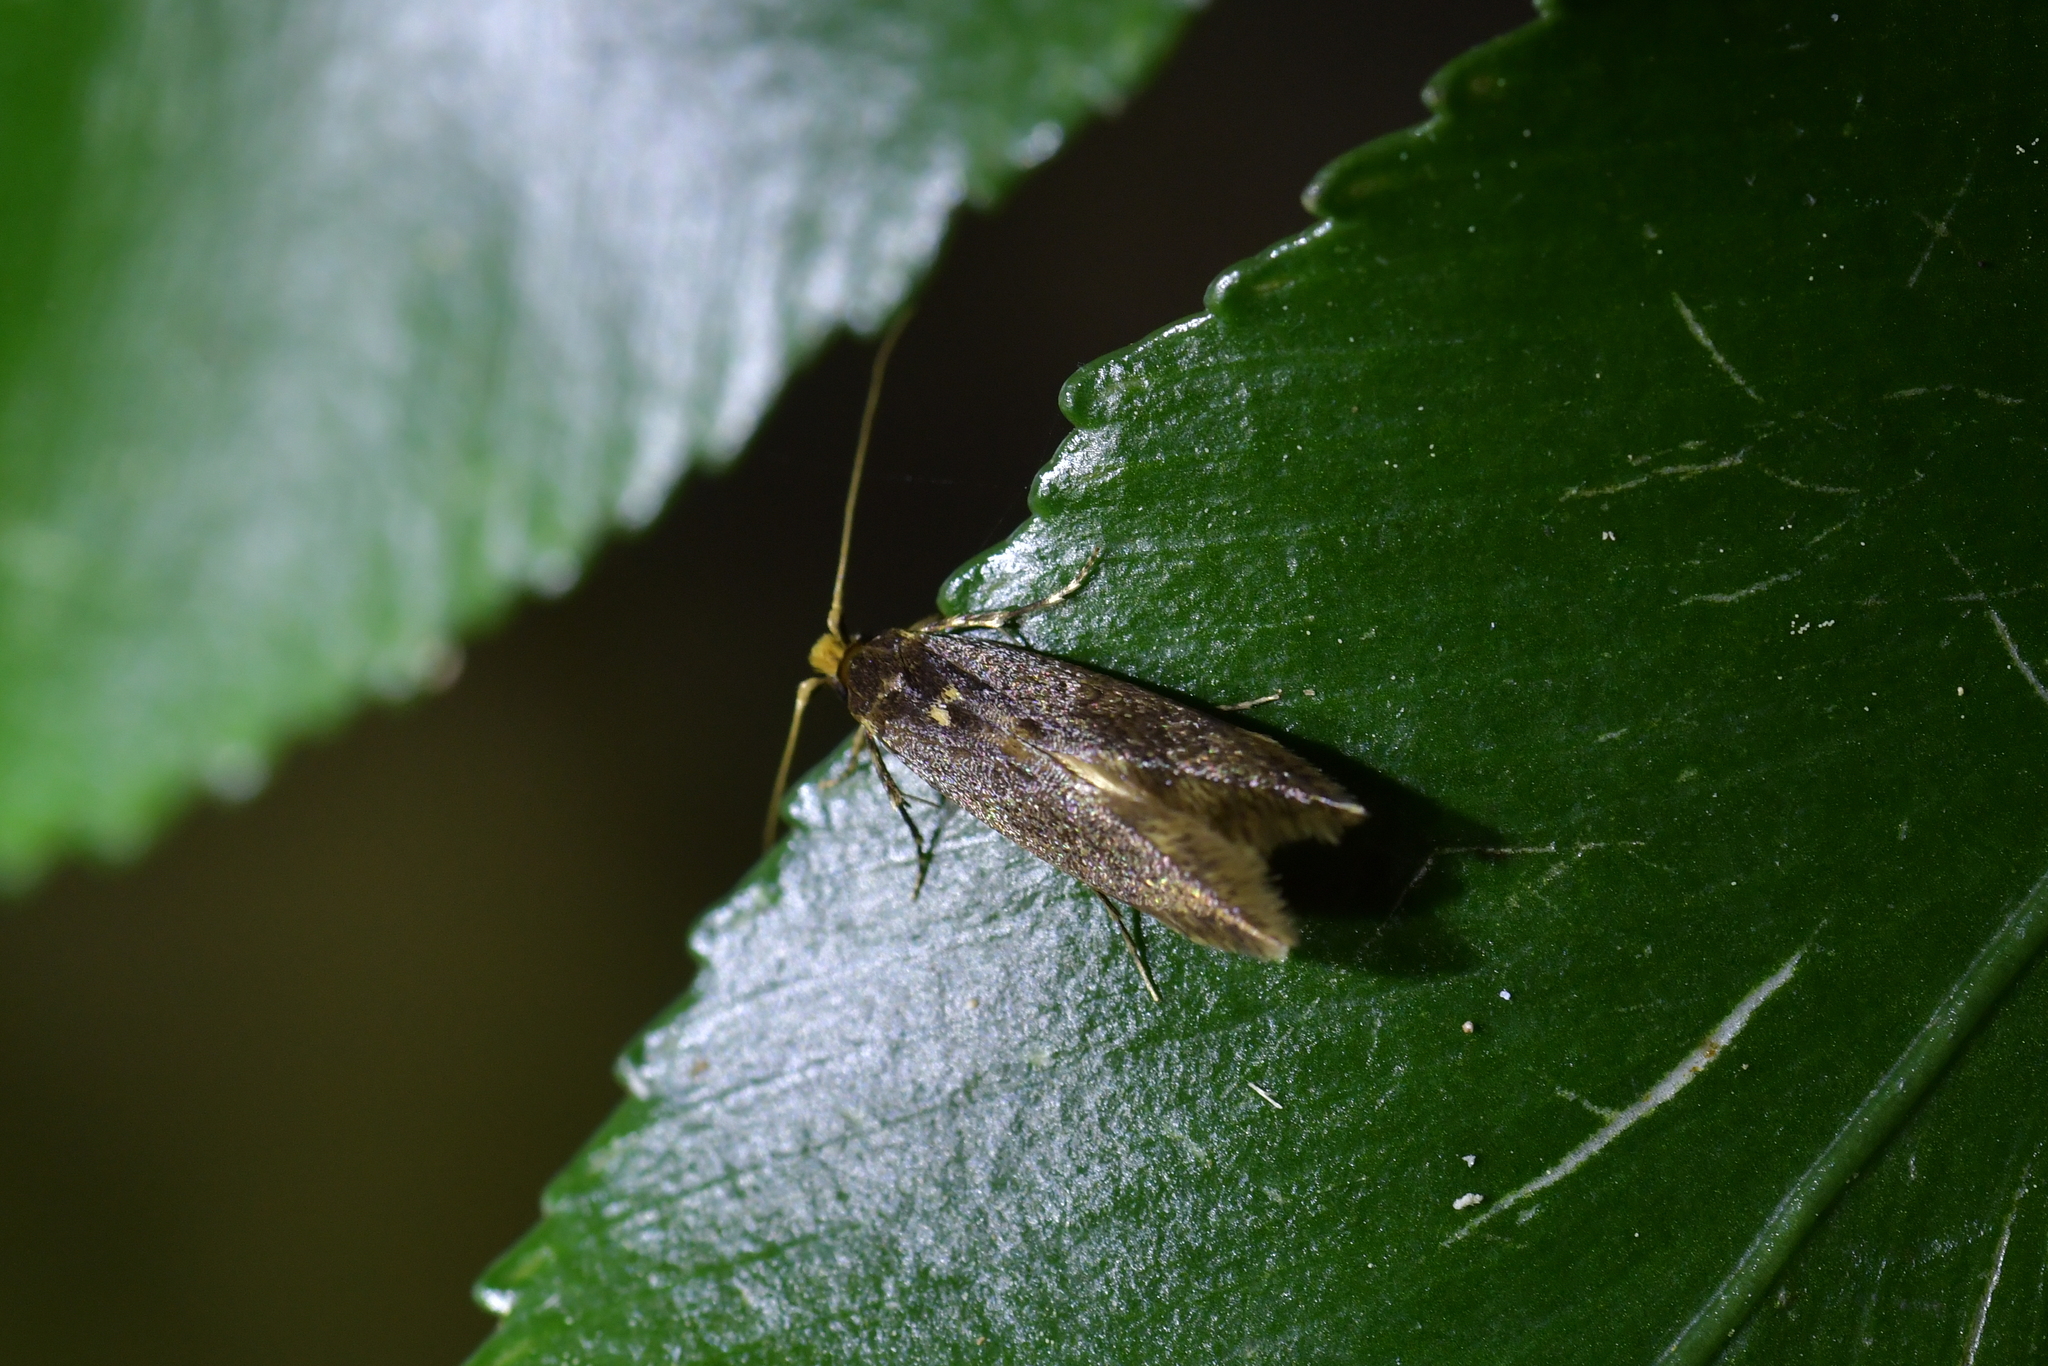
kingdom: Animalia
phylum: Arthropoda
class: Insecta
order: Lepidoptera
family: Tineidae
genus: Opogona
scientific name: Opogona omoscopa
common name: Moth
